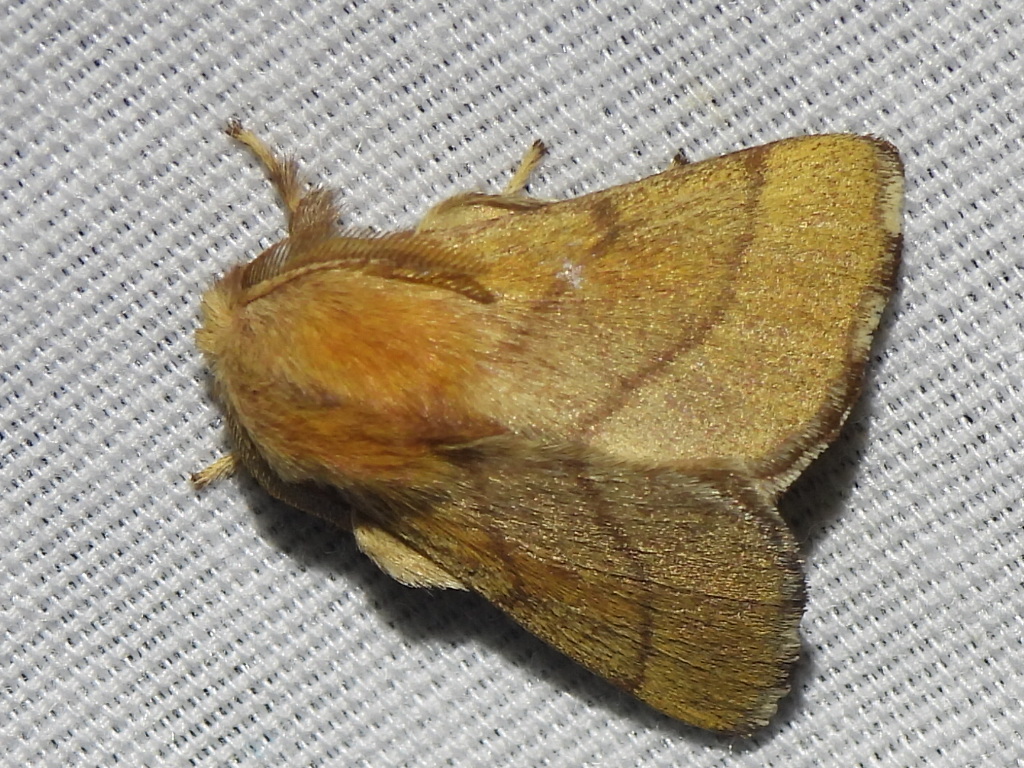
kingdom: Animalia
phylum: Arthropoda
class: Insecta
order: Lepidoptera
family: Lasiocampidae
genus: Malacosoma
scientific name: Malacosoma disstria
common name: Forest tent caterpillar
